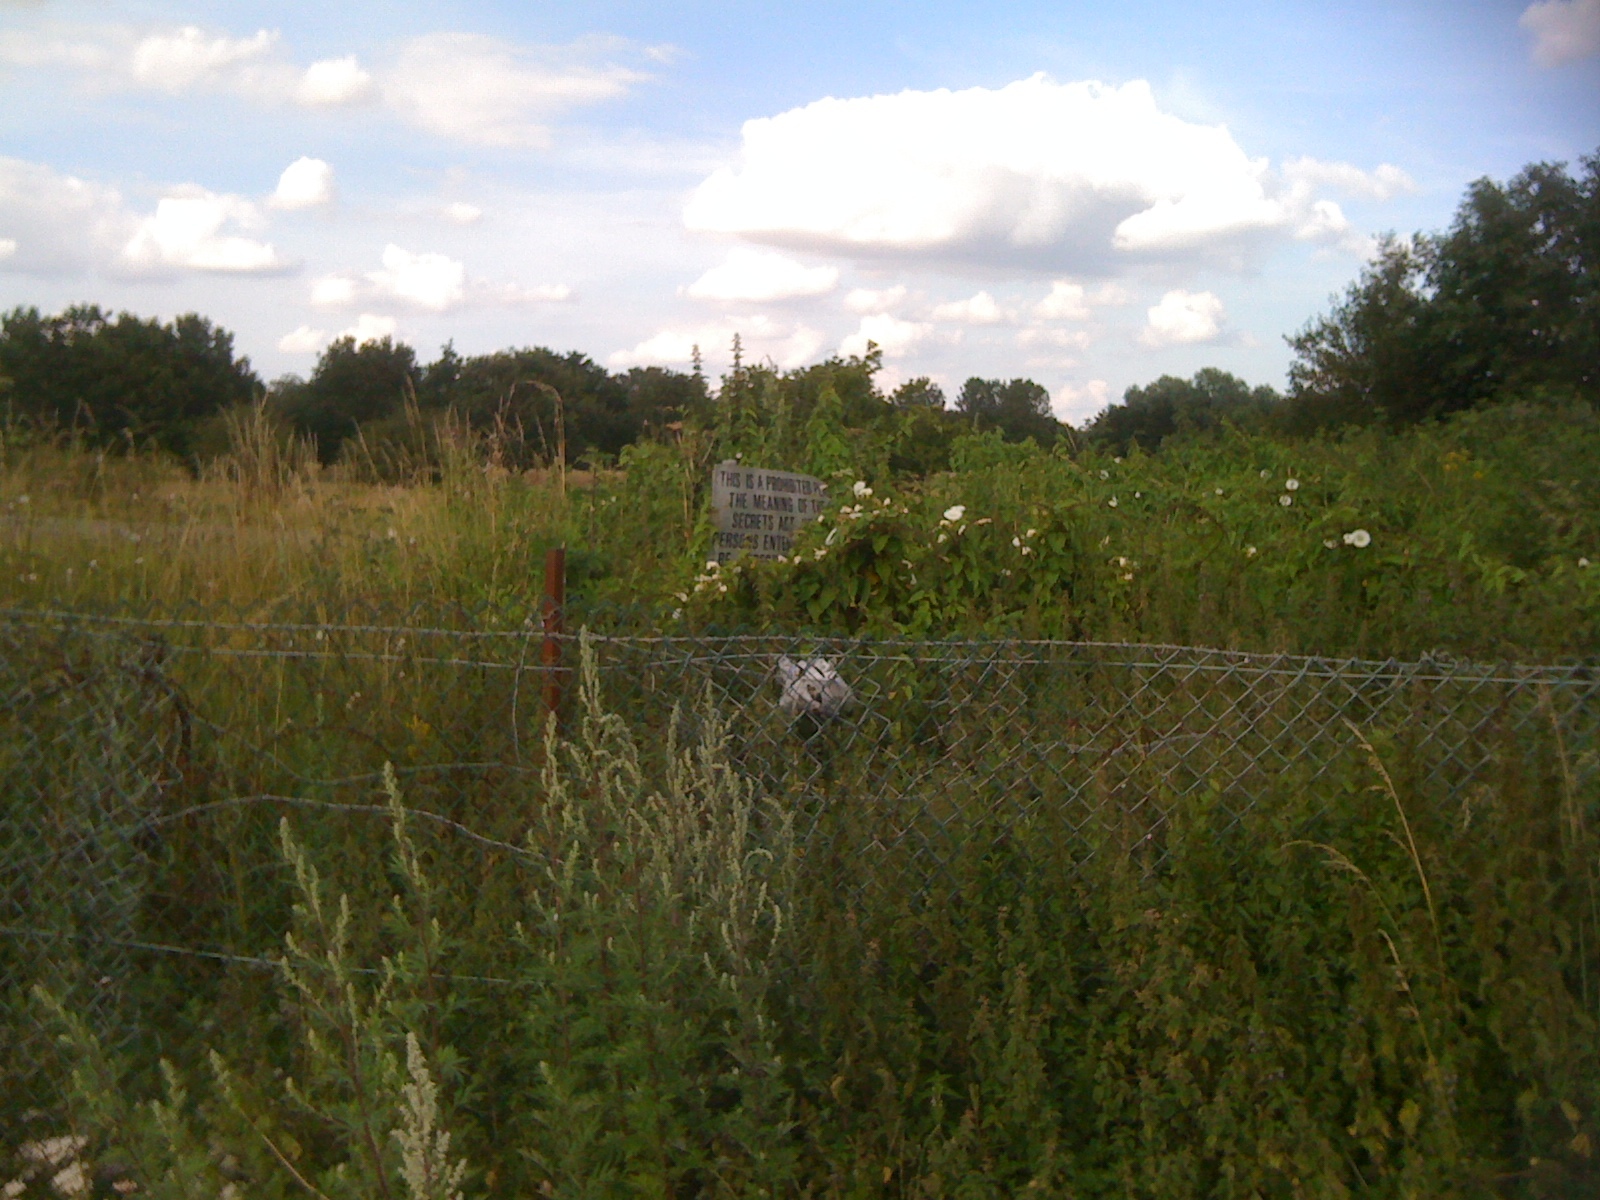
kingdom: Plantae
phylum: Tracheophyta
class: Magnoliopsida
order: Asterales
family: Asteraceae
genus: Artemisia
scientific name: Artemisia vulgaris
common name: Mugwort
